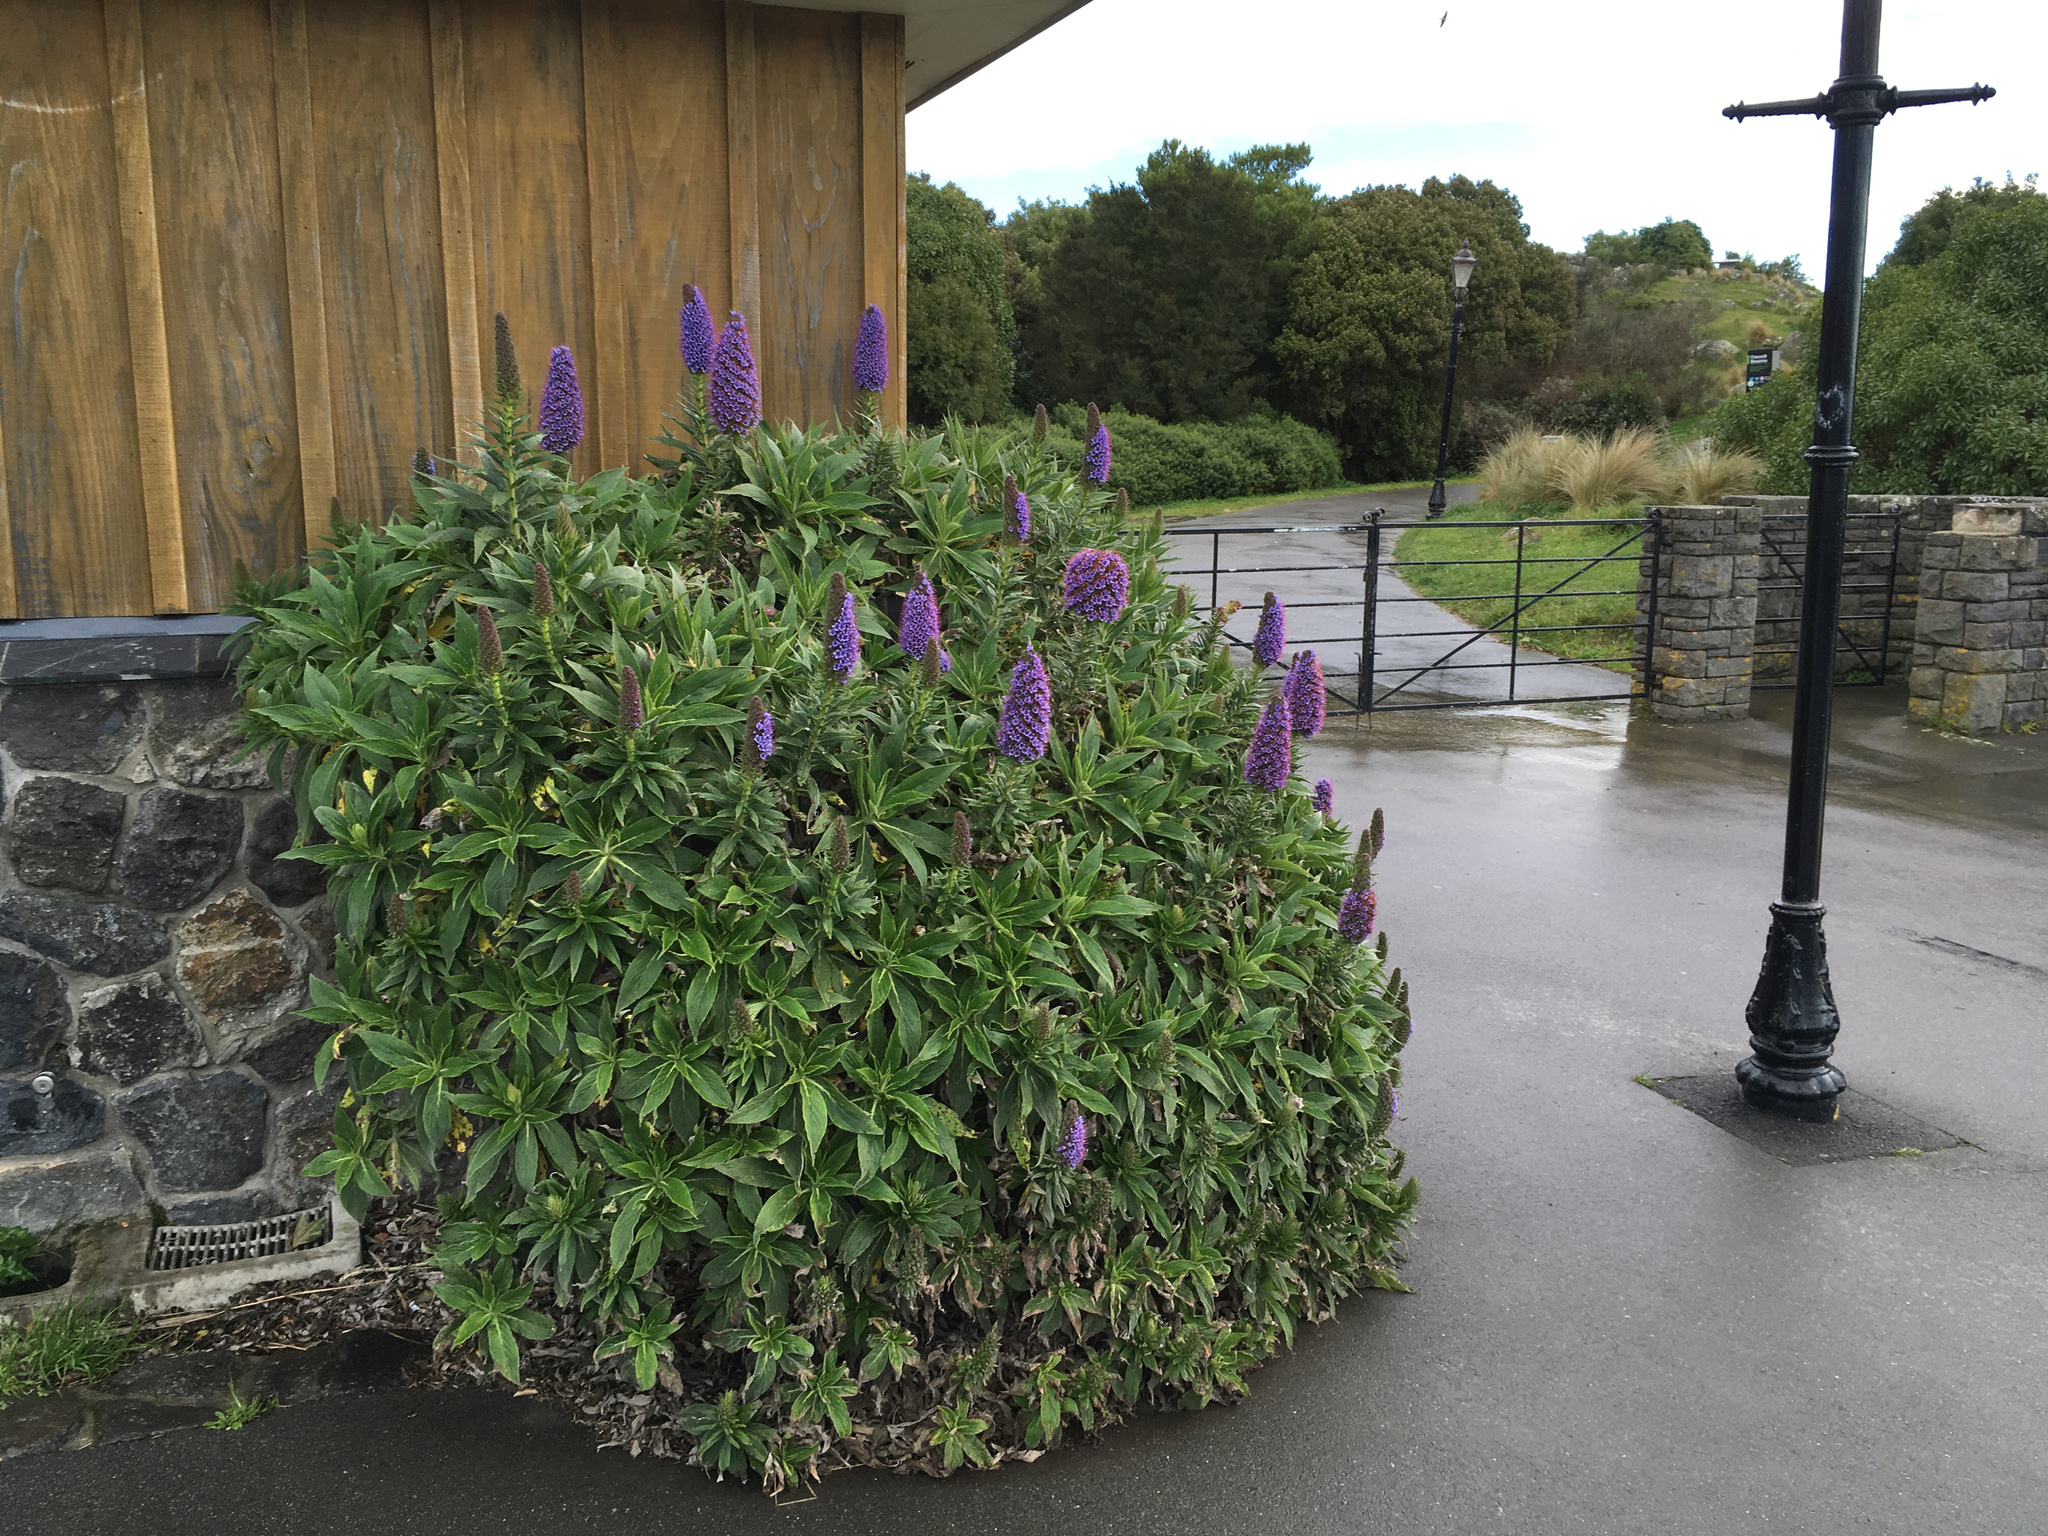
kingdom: Plantae
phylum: Tracheophyta
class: Magnoliopsida
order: Boraginales
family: Boraginaceae
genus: Echium
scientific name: Echium candicans
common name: Pride of madeira
